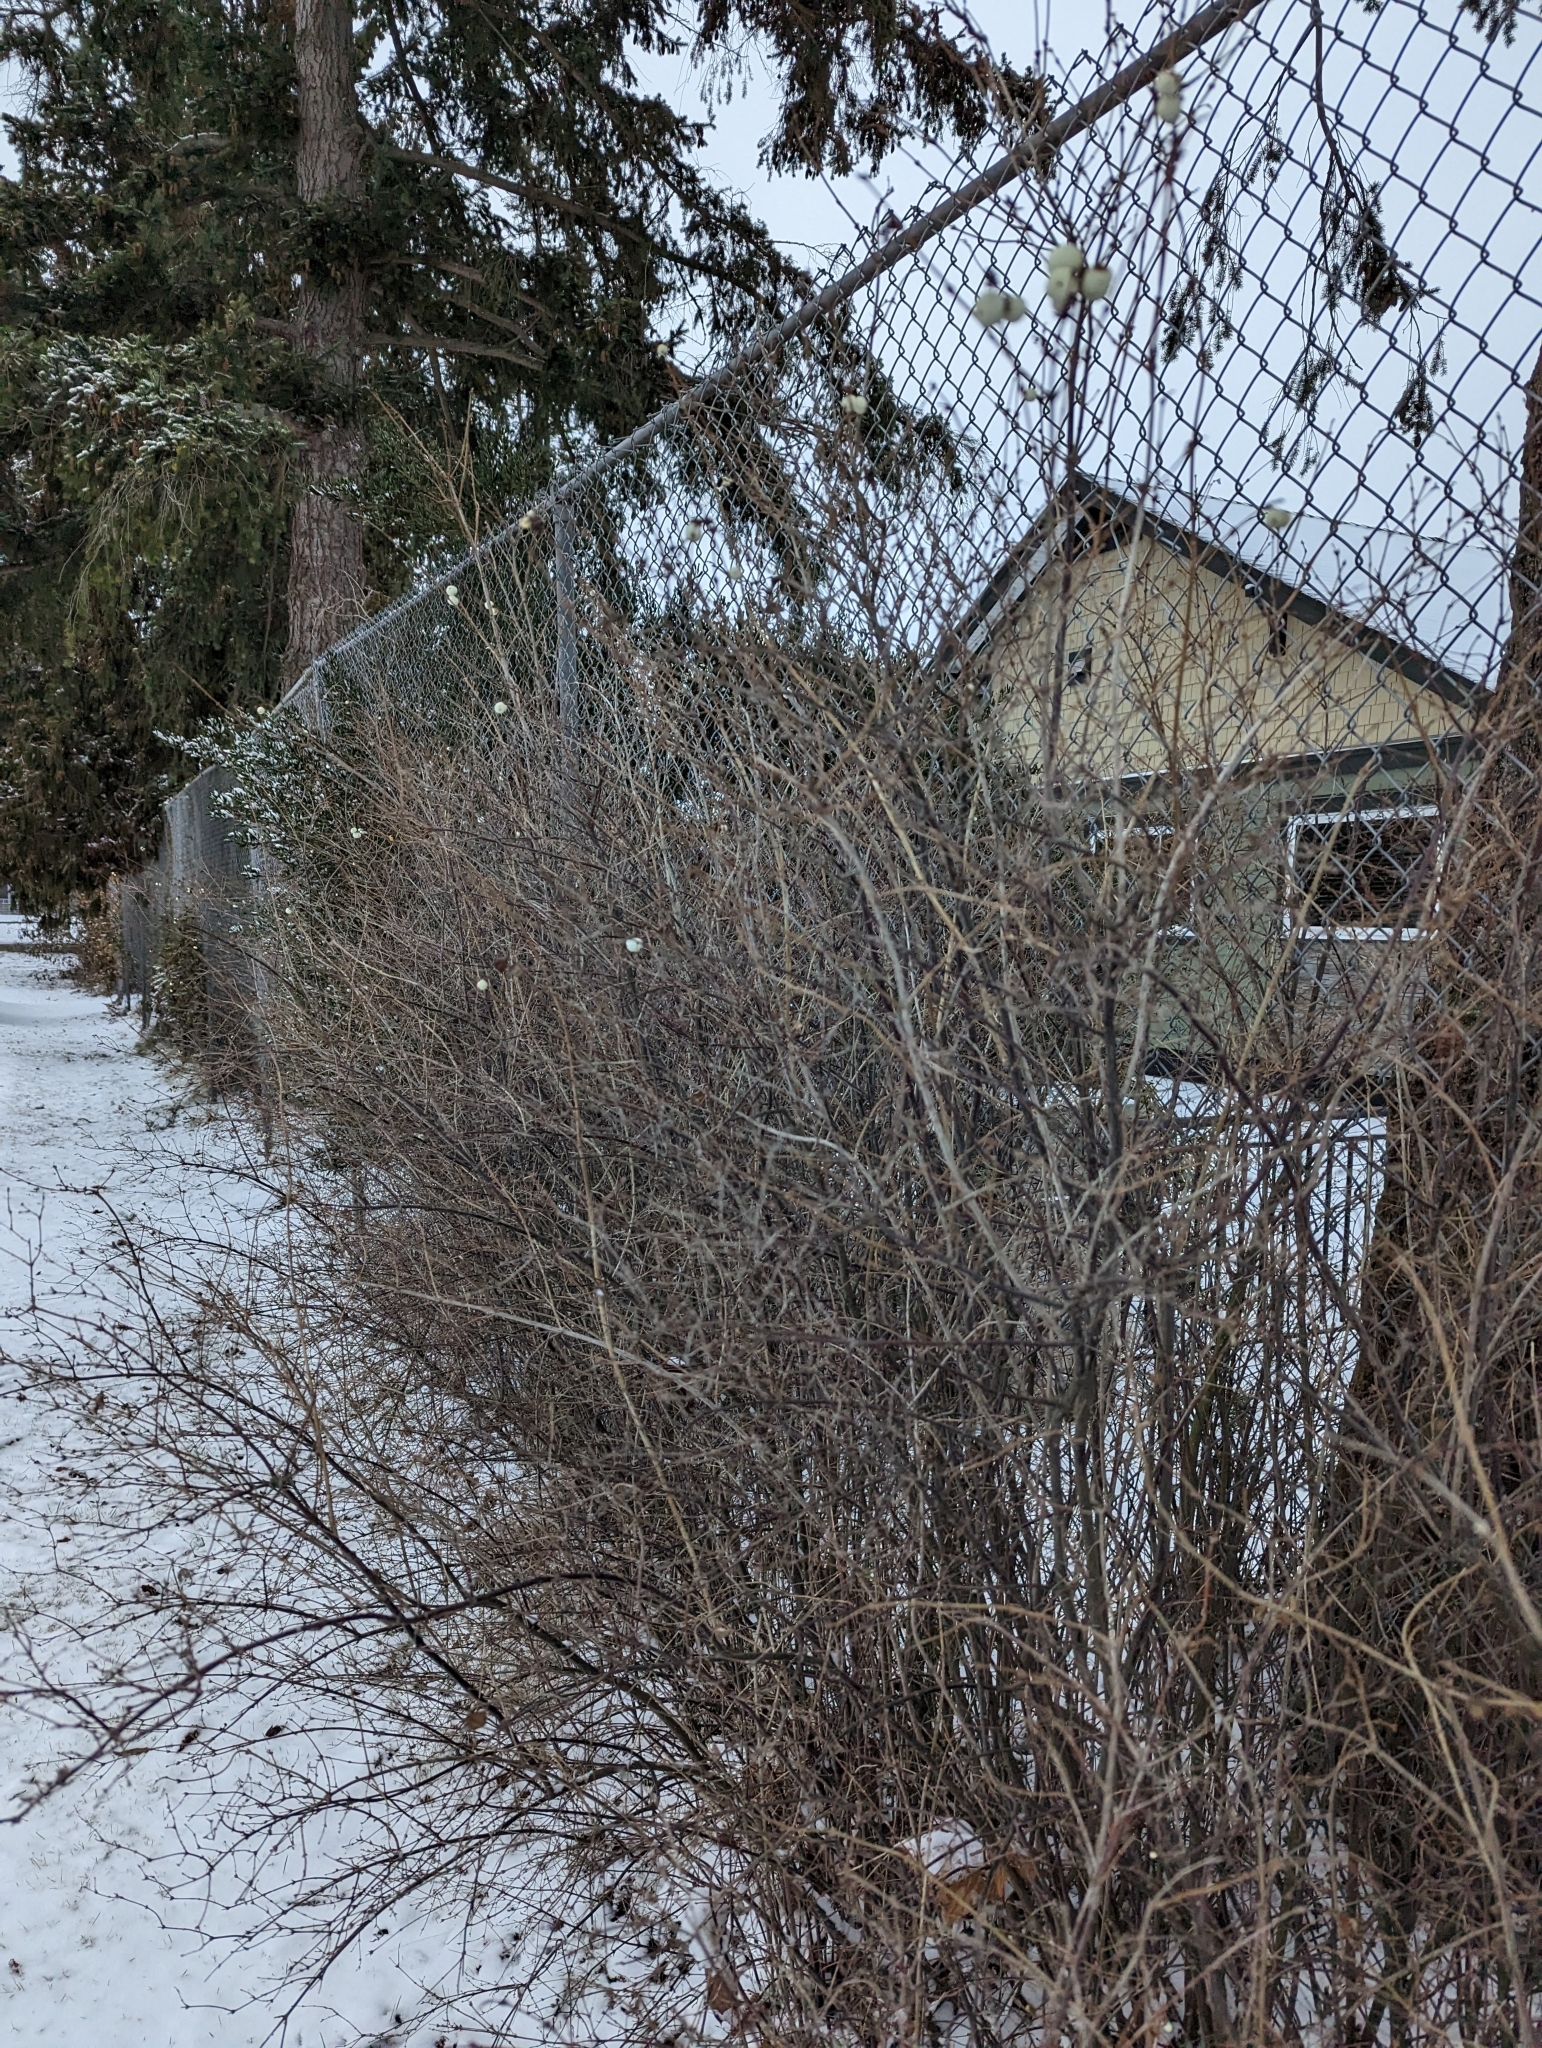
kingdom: Plantae
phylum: Tracheophyta
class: Magnoliopsida
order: Dipsacales
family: Caprifoliaceae
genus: Symphoricarpos
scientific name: Symphoricarpos albus
